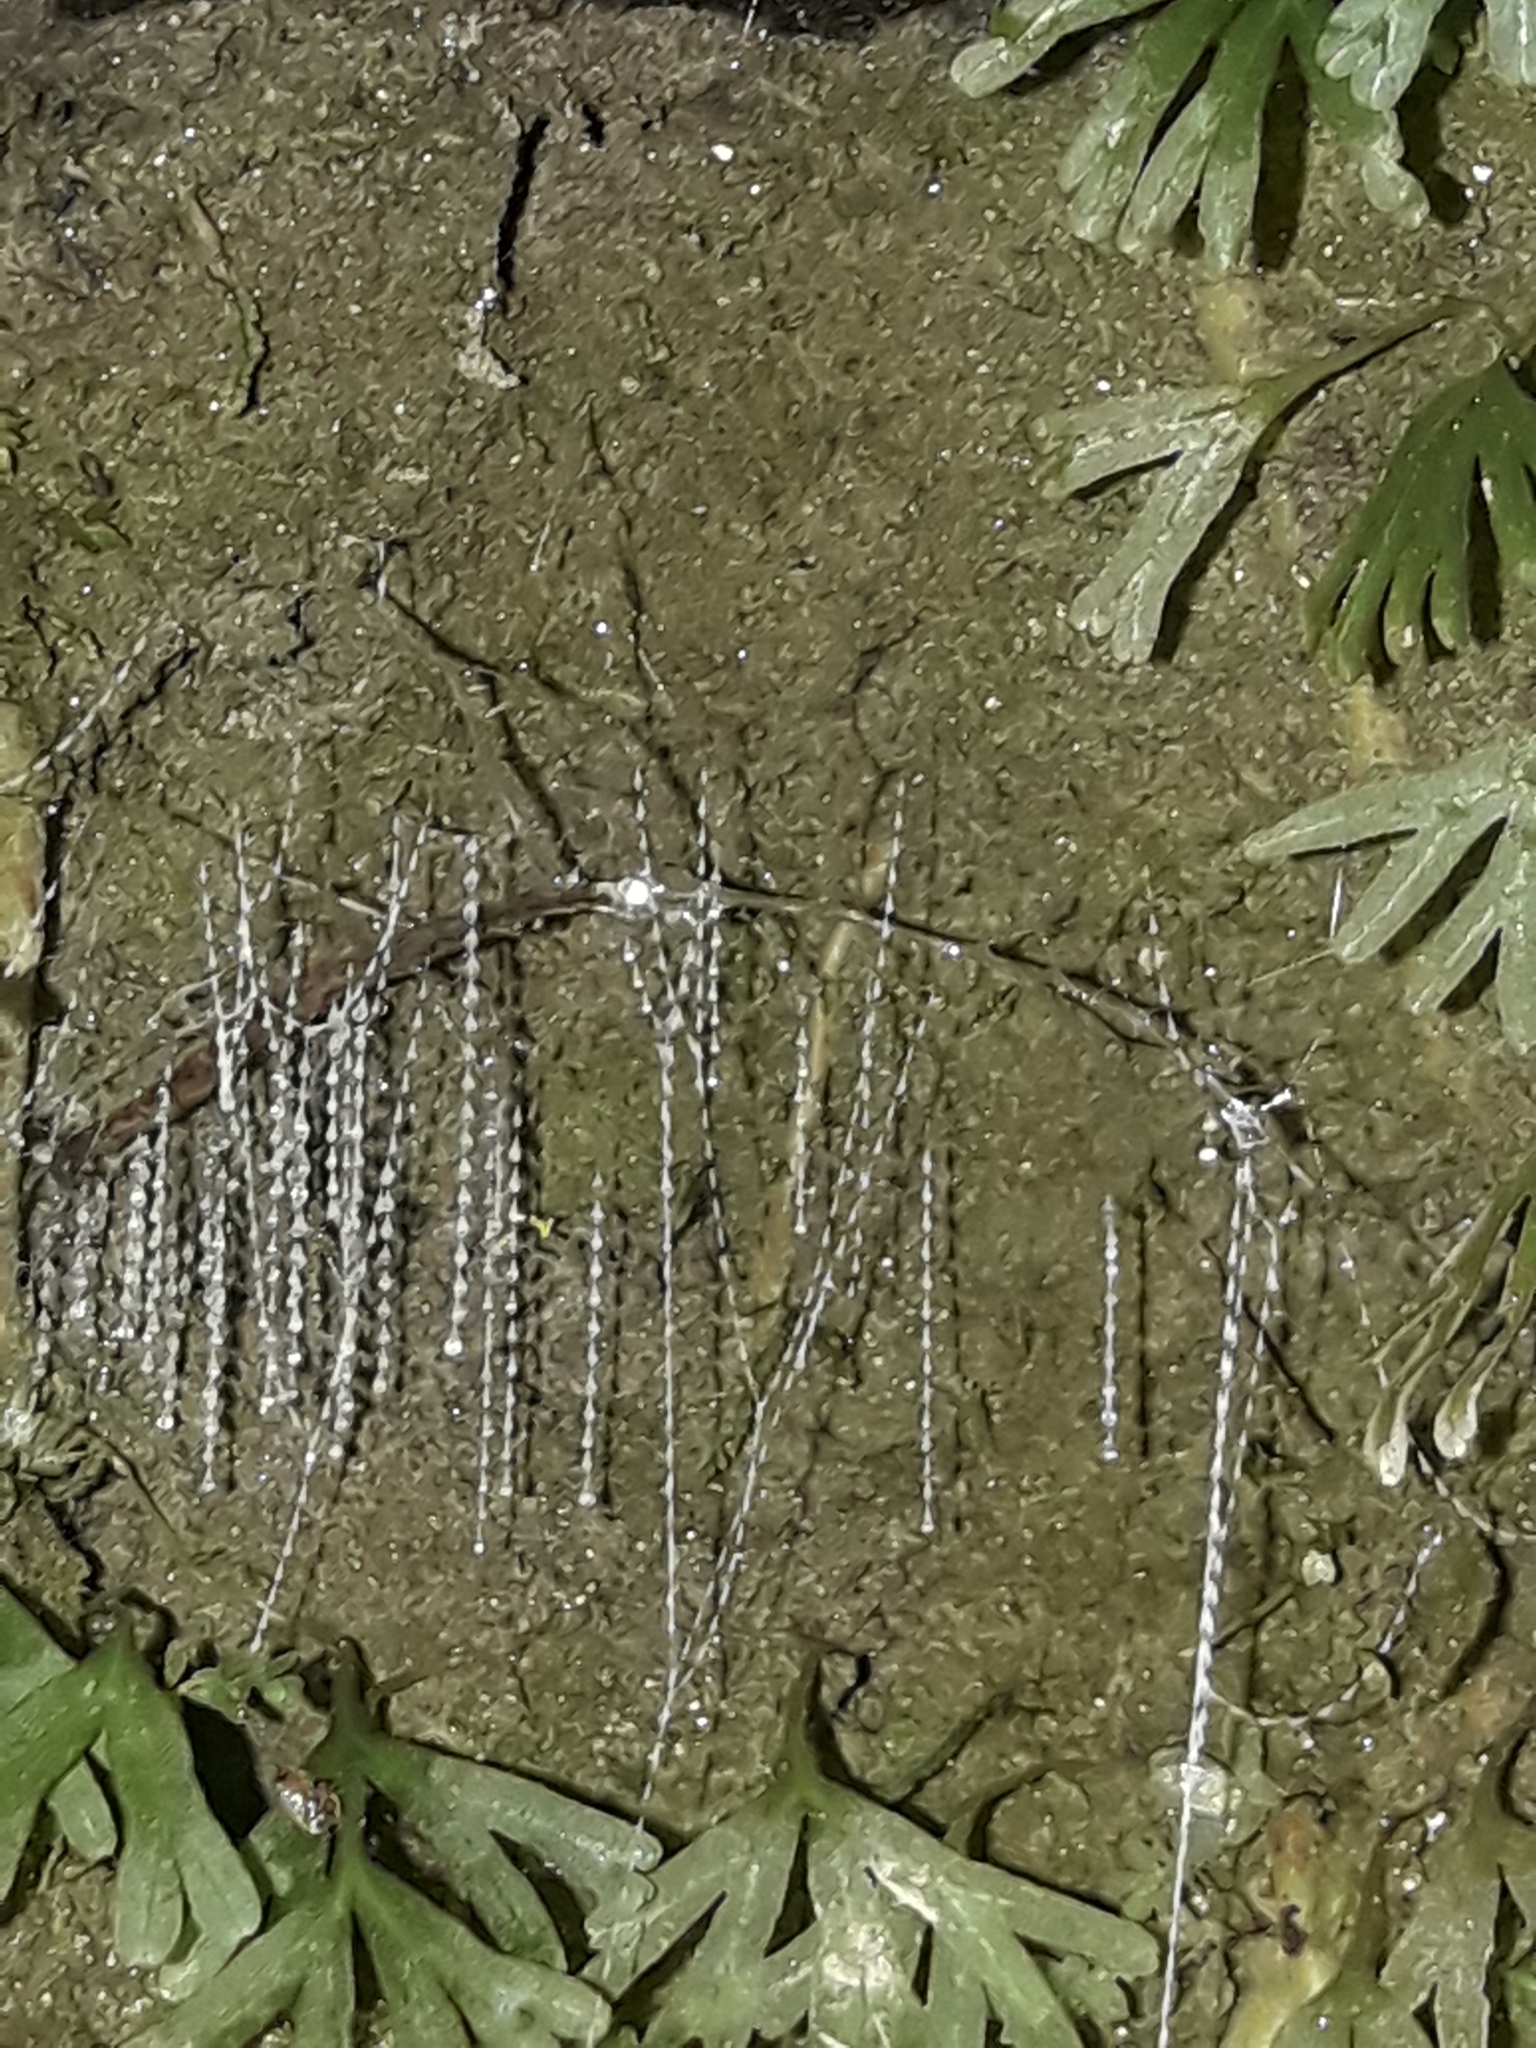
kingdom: Animalia
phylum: Arthropoda
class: Insecta
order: Diptera
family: Keroplatidae
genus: Arachnocampa
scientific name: Arachnocampa luminosa
